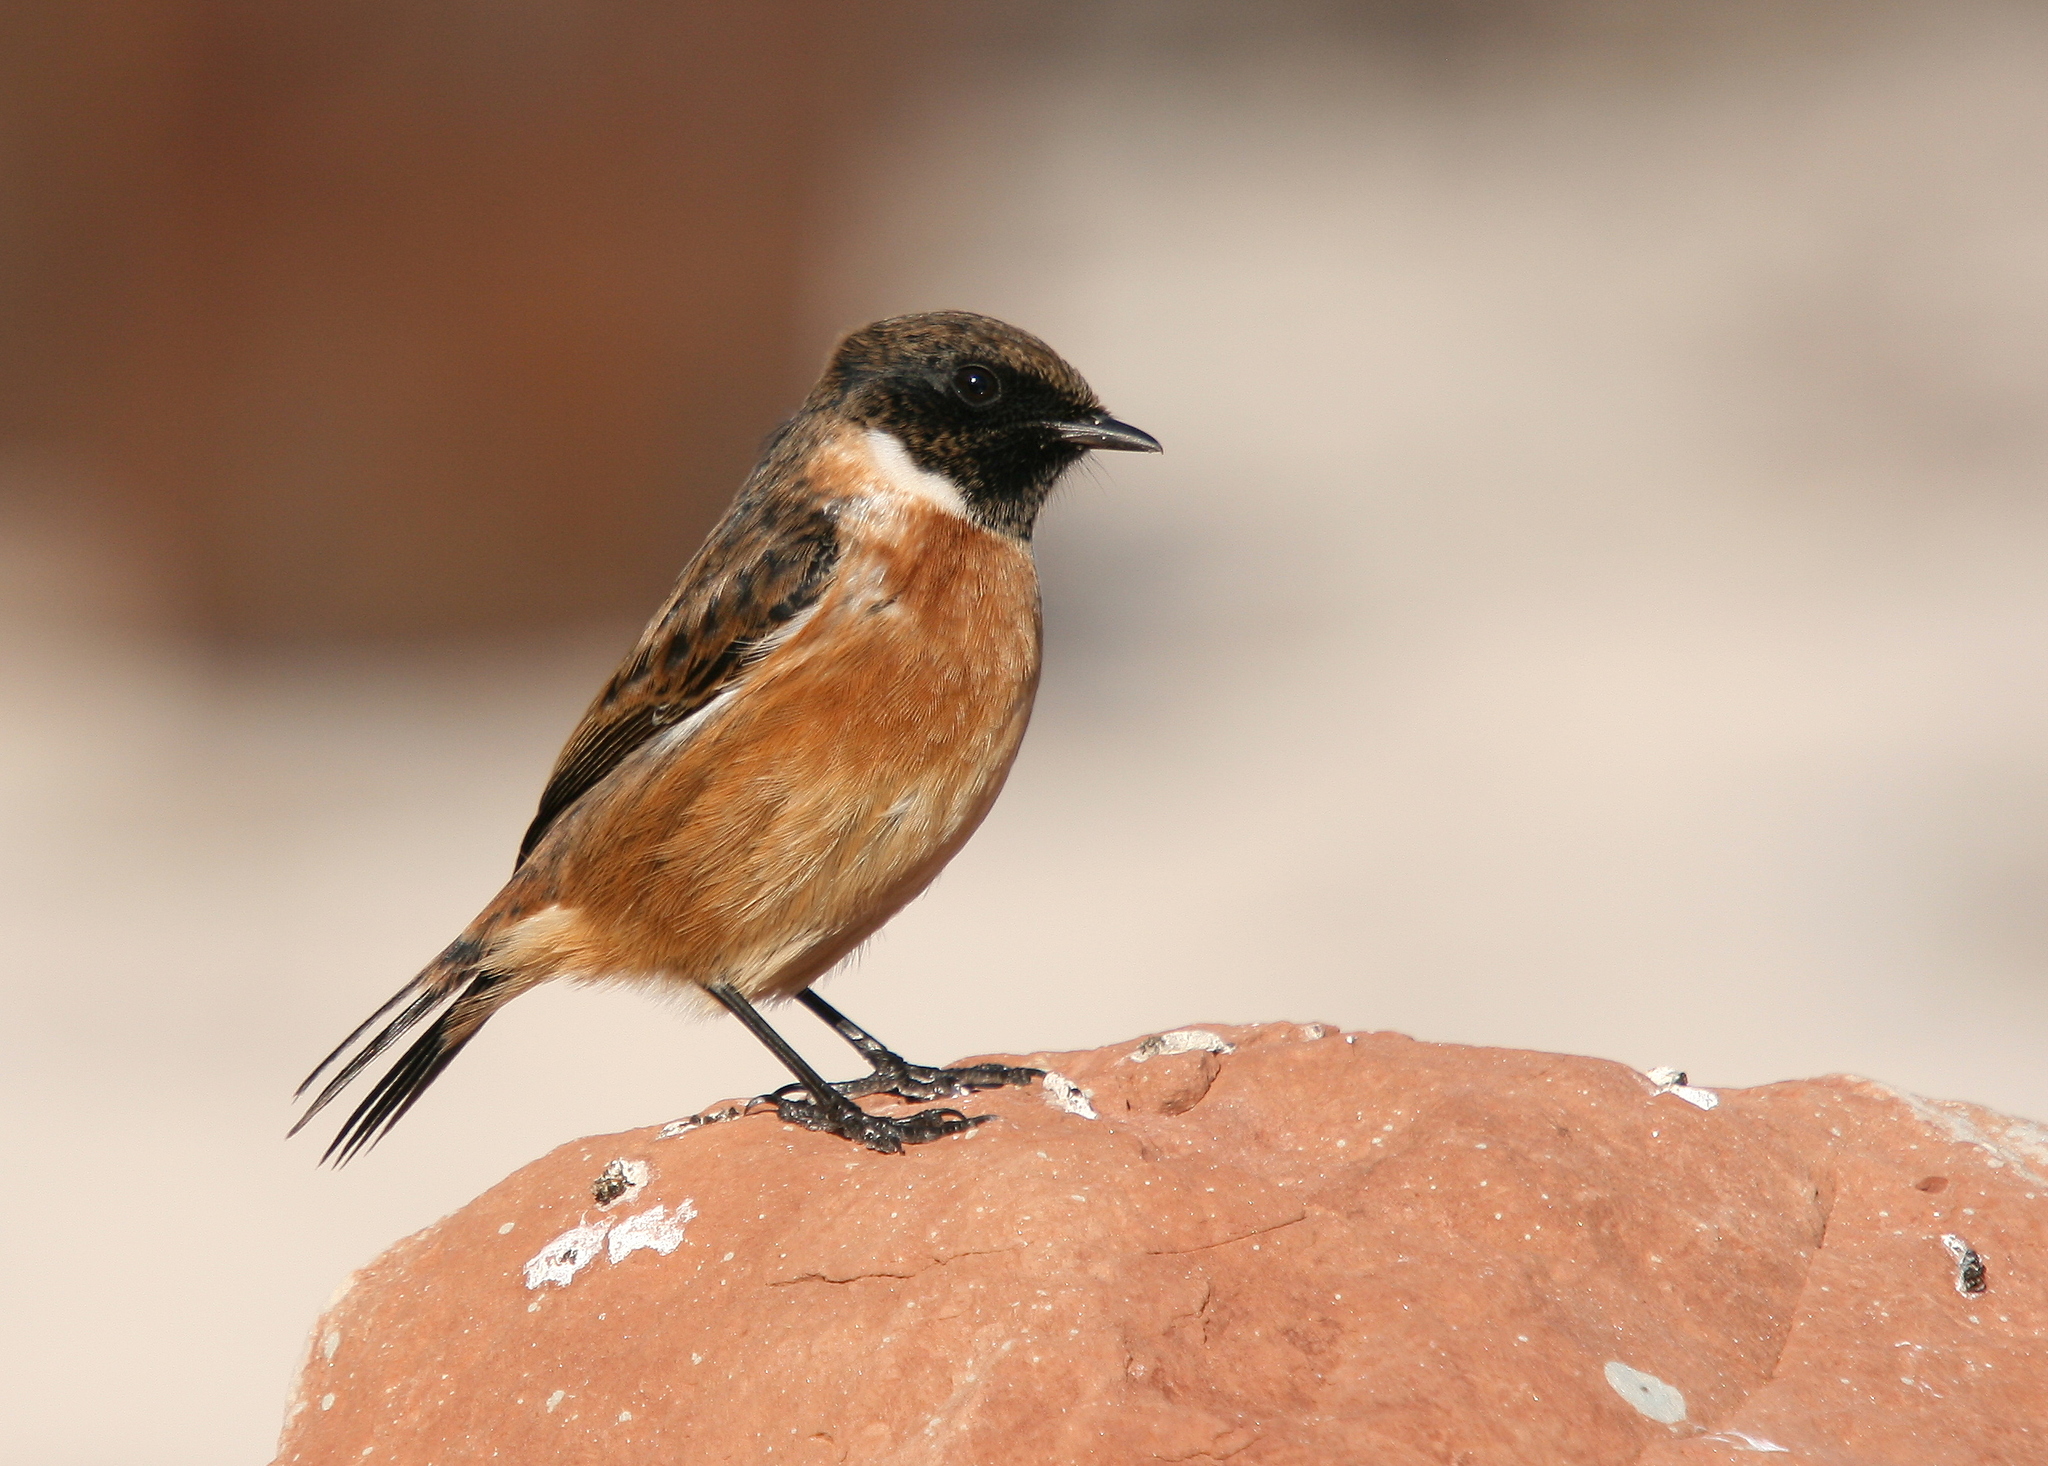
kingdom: Animalia
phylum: Chordata
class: Aves
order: Passeriformes
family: Muscicapidae
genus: Saxicola
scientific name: Saxicola rubicola
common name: European stonechat
